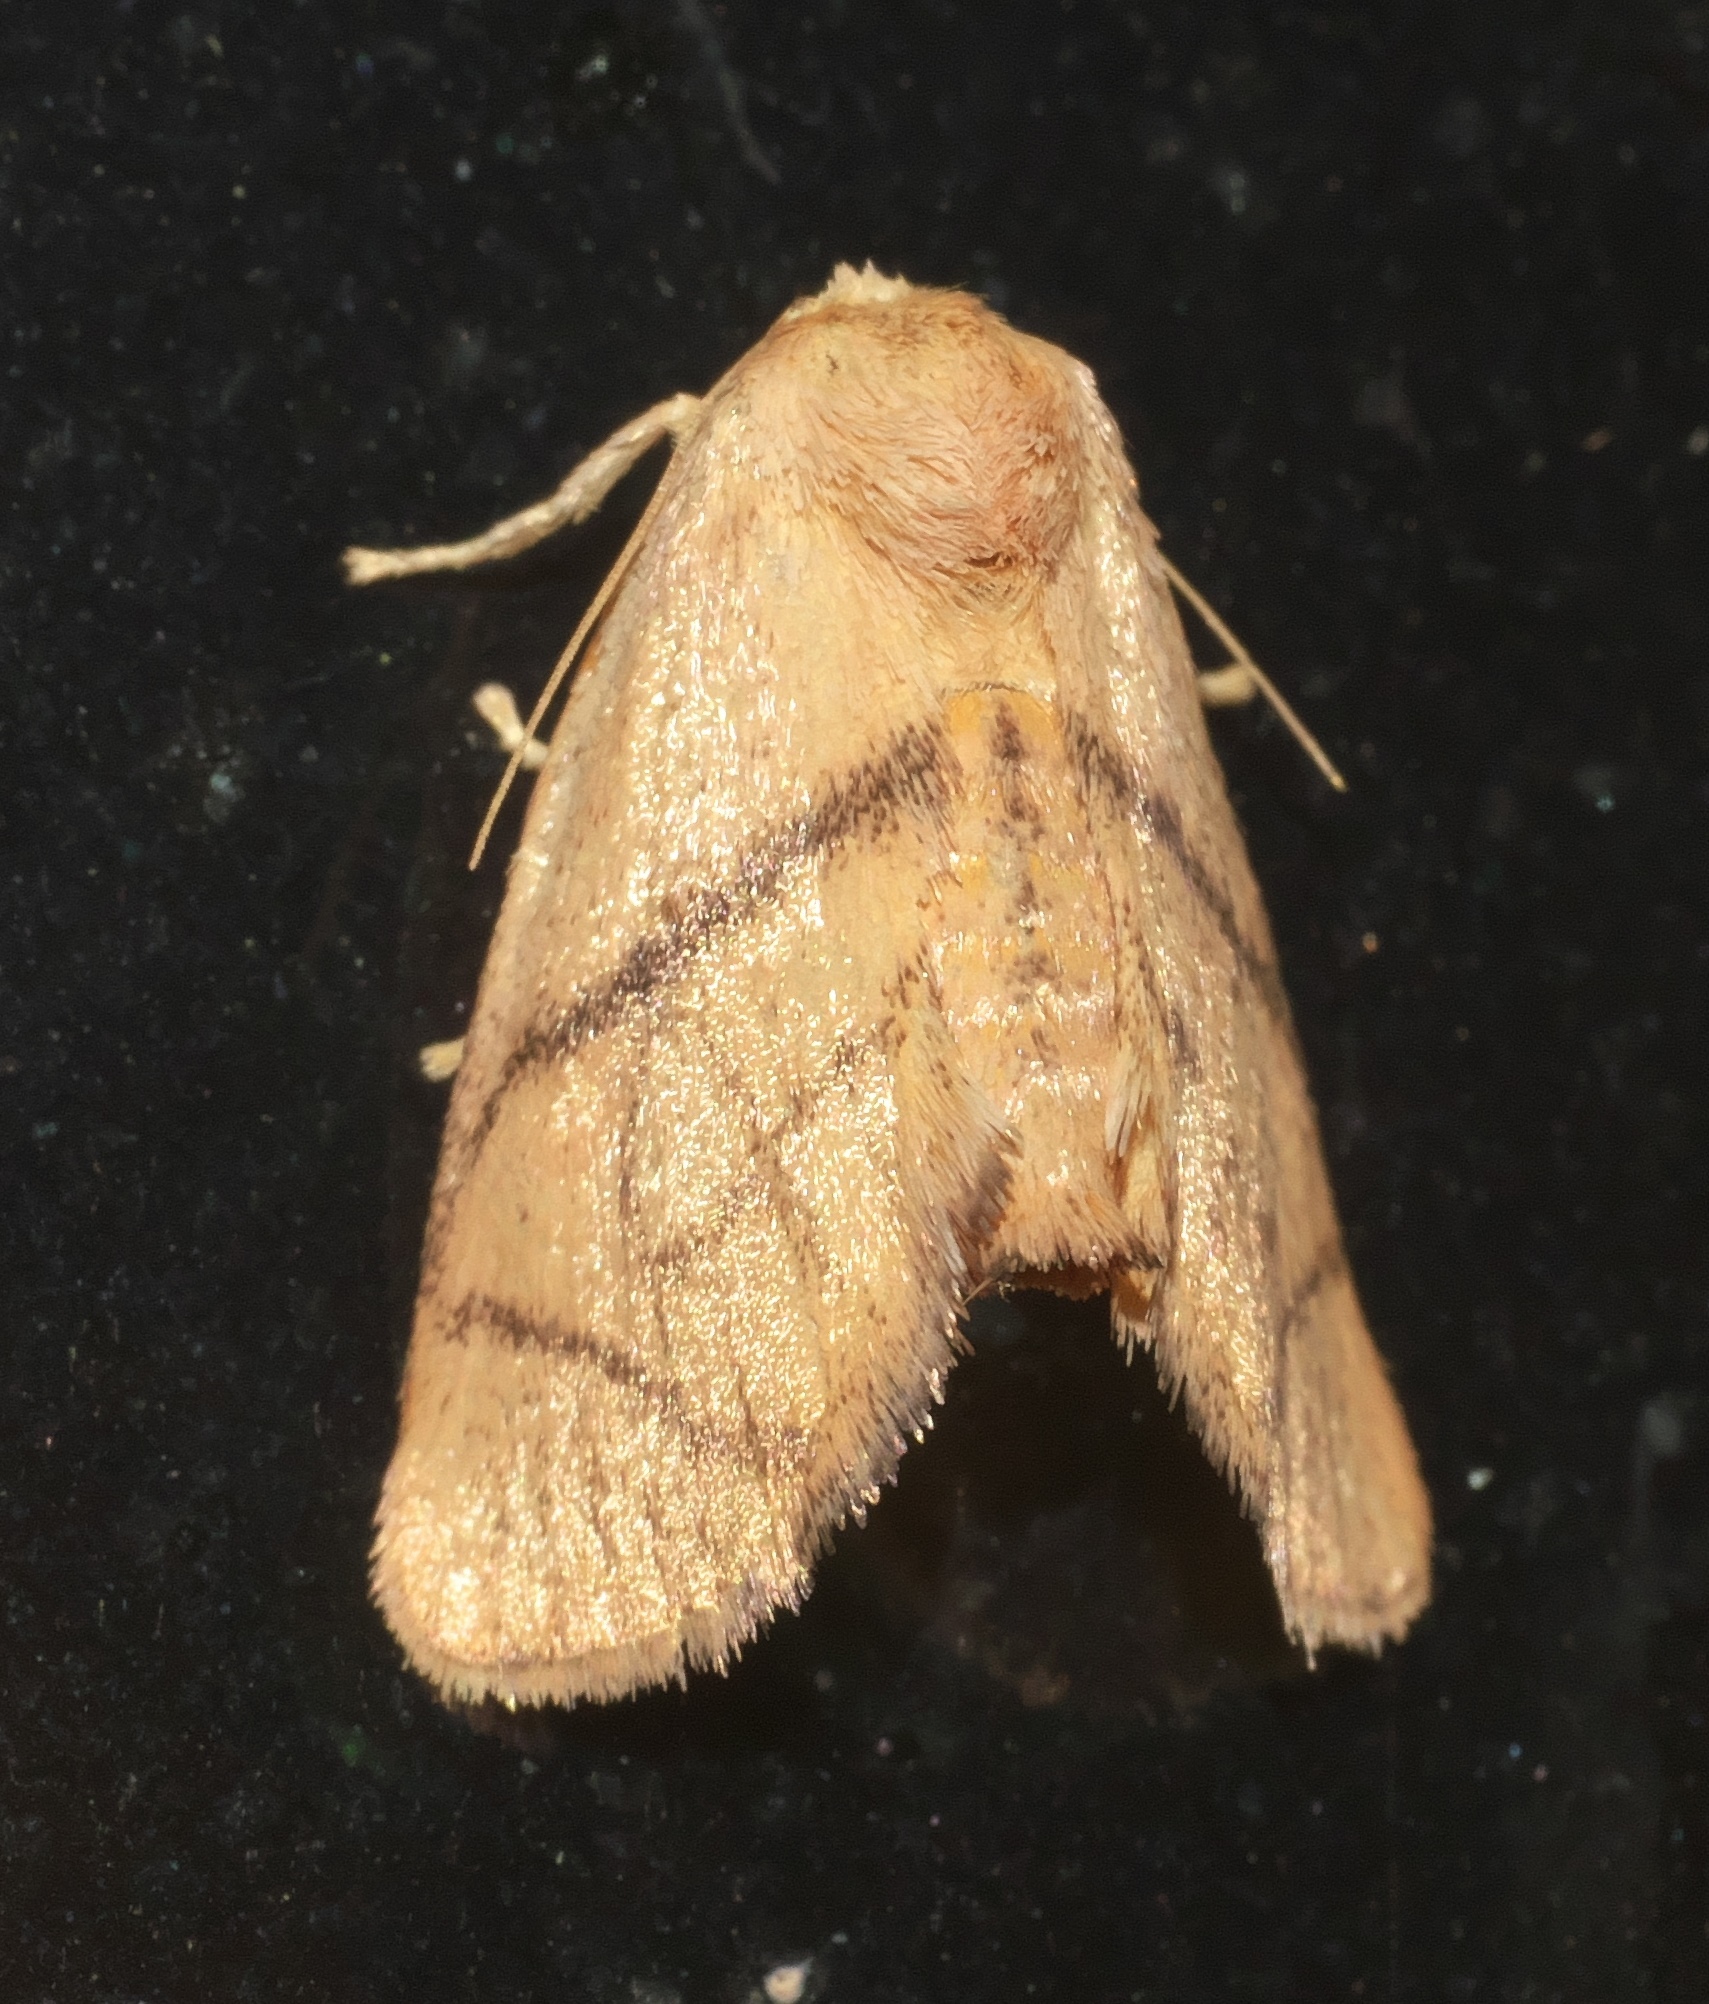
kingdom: Animalia
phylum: Arthropoda
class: Insecta
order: Lepidoptera
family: Limacodidae
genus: Apoda
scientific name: Apoda y-inversa
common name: Yellow-collared slug moth
